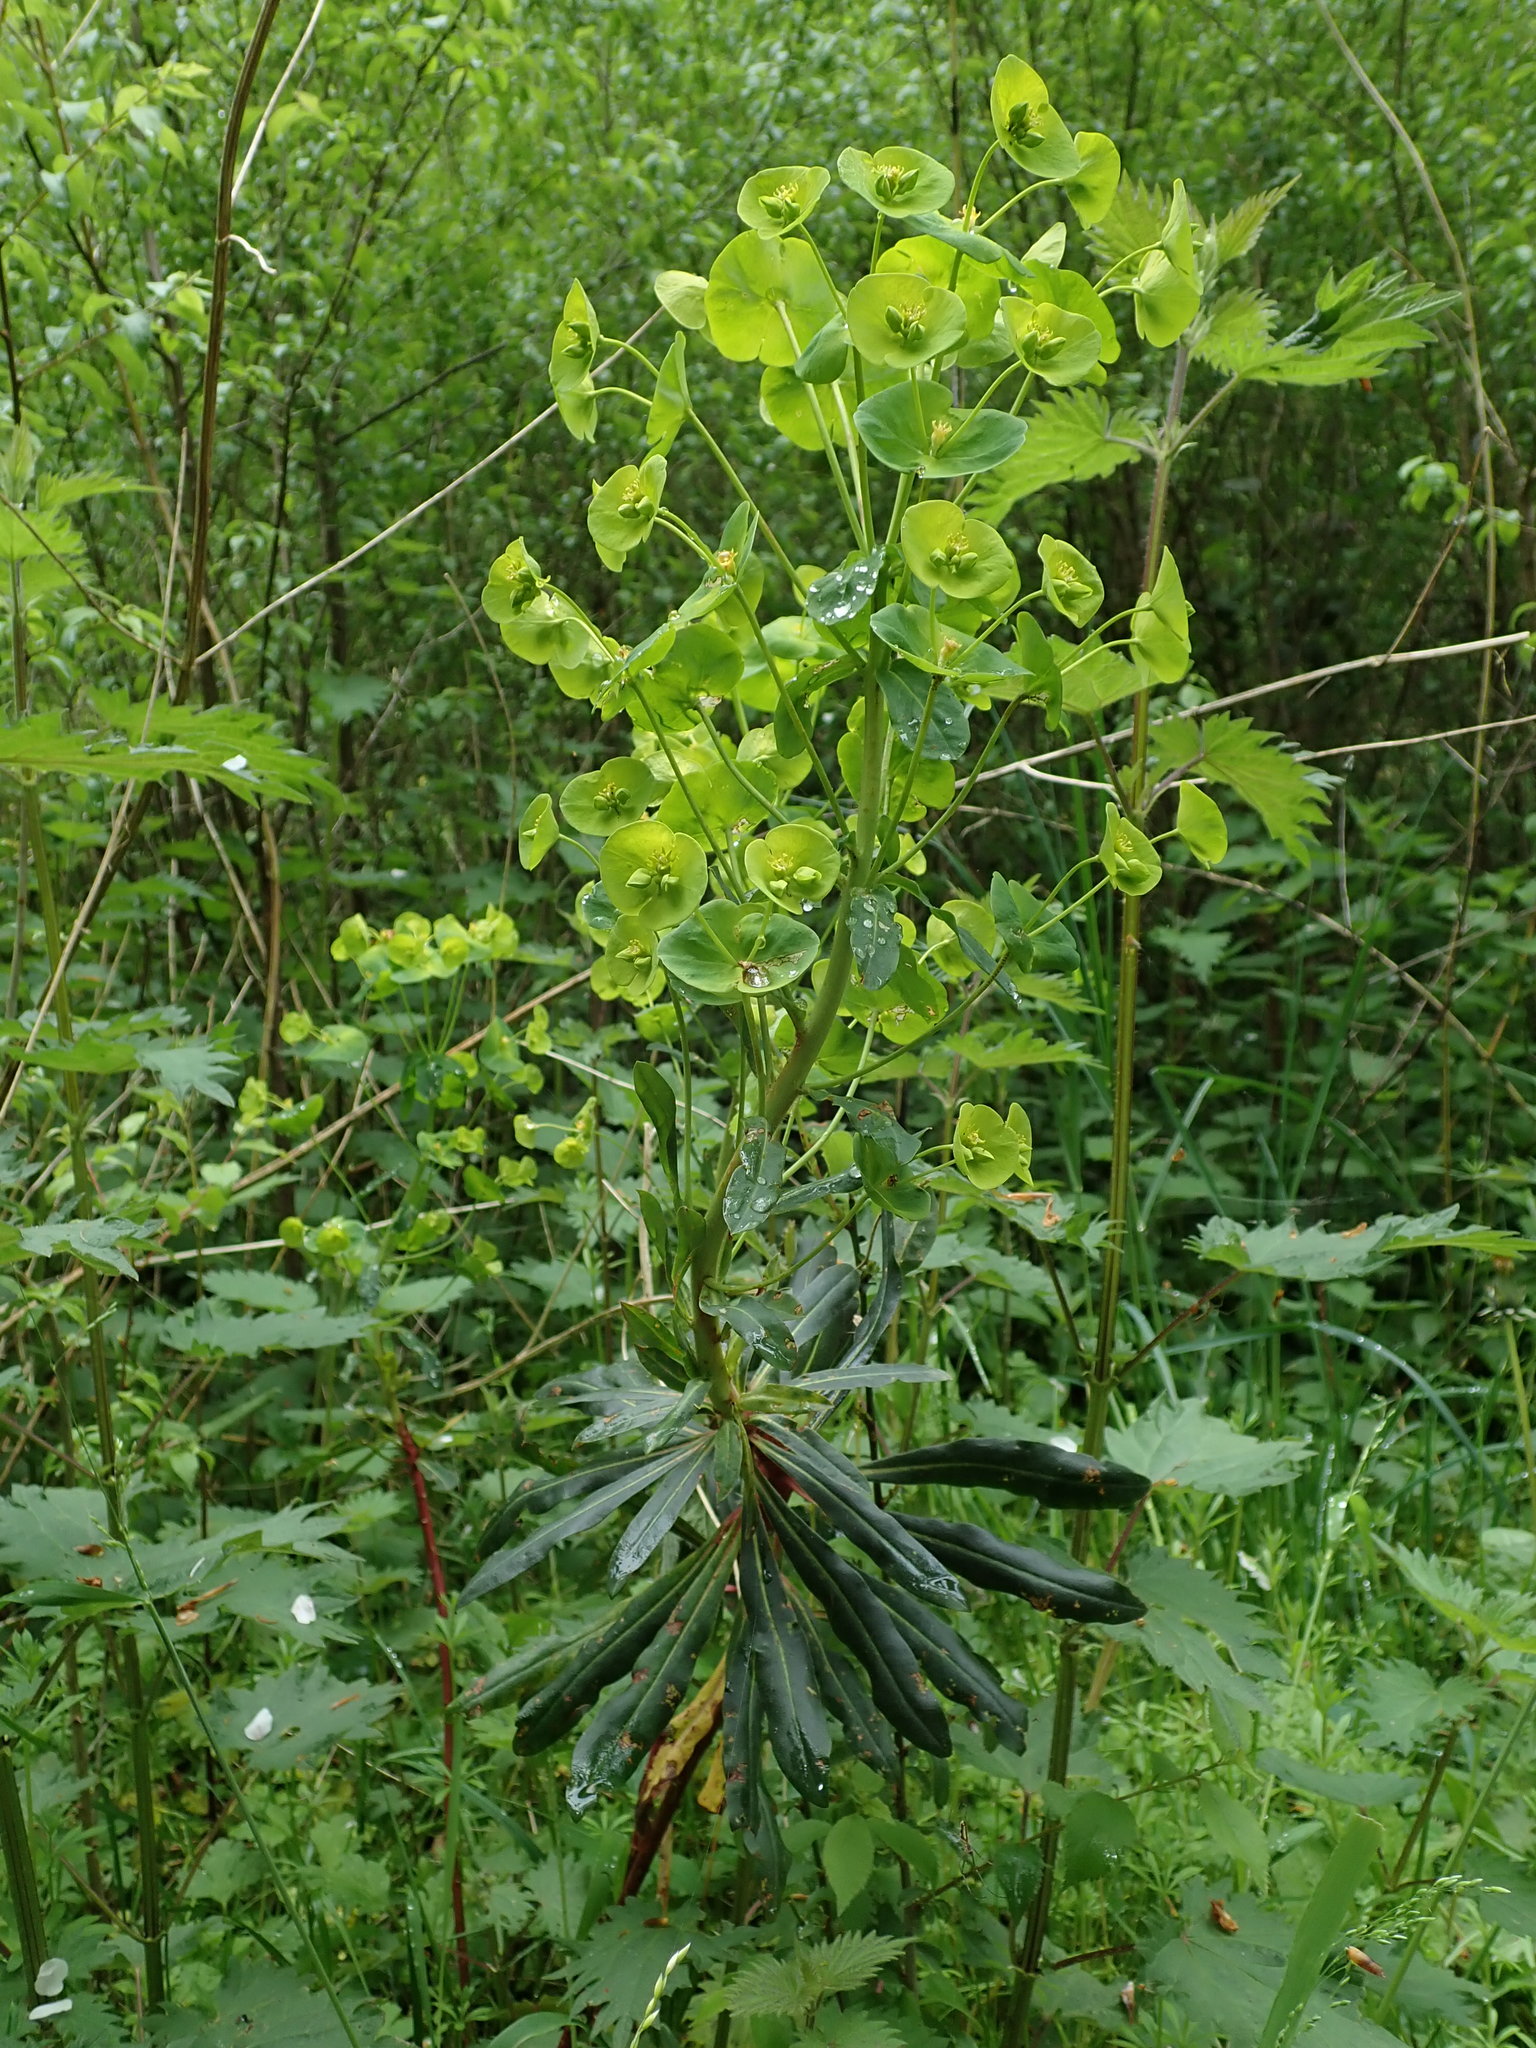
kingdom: Plantae
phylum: Tracheophyta
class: Magnoliopsida
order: Malpighiales
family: Euphorbiaceae
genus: Euphorbia
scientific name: Euphorbia amygdaloides
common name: Wood spurge
